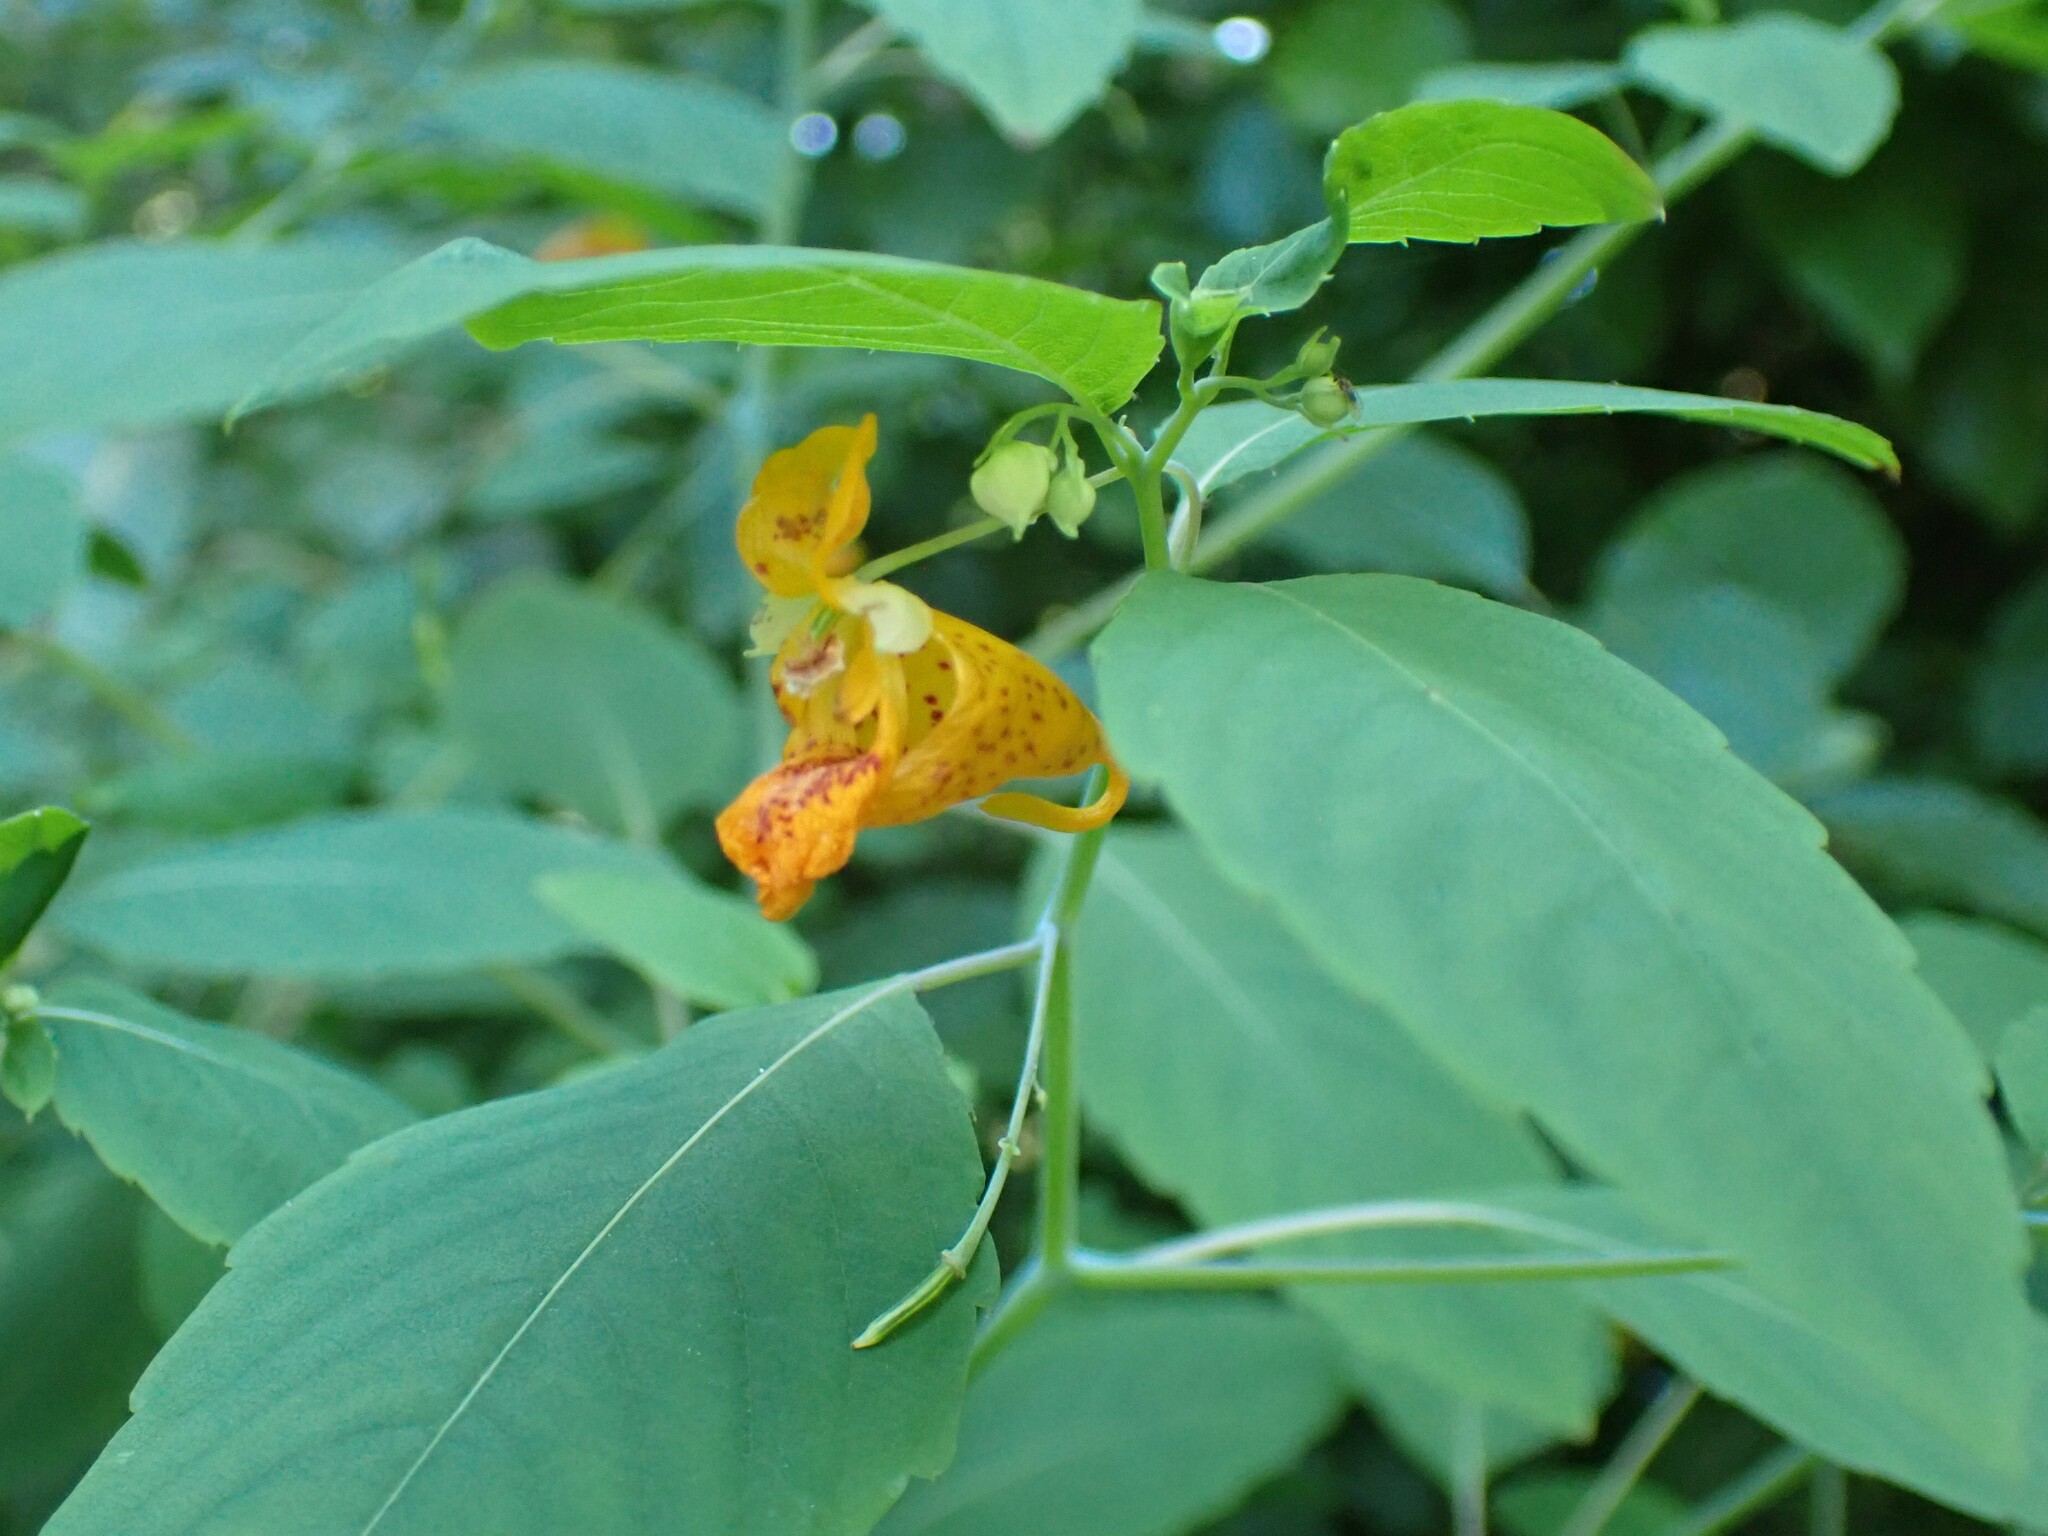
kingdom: Plantae
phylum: Tracheophyta
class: Magnoliopsida
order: Ericales
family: Balsaminaceae
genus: Impatiens
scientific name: Impatiens capensis
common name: Orange balsam
